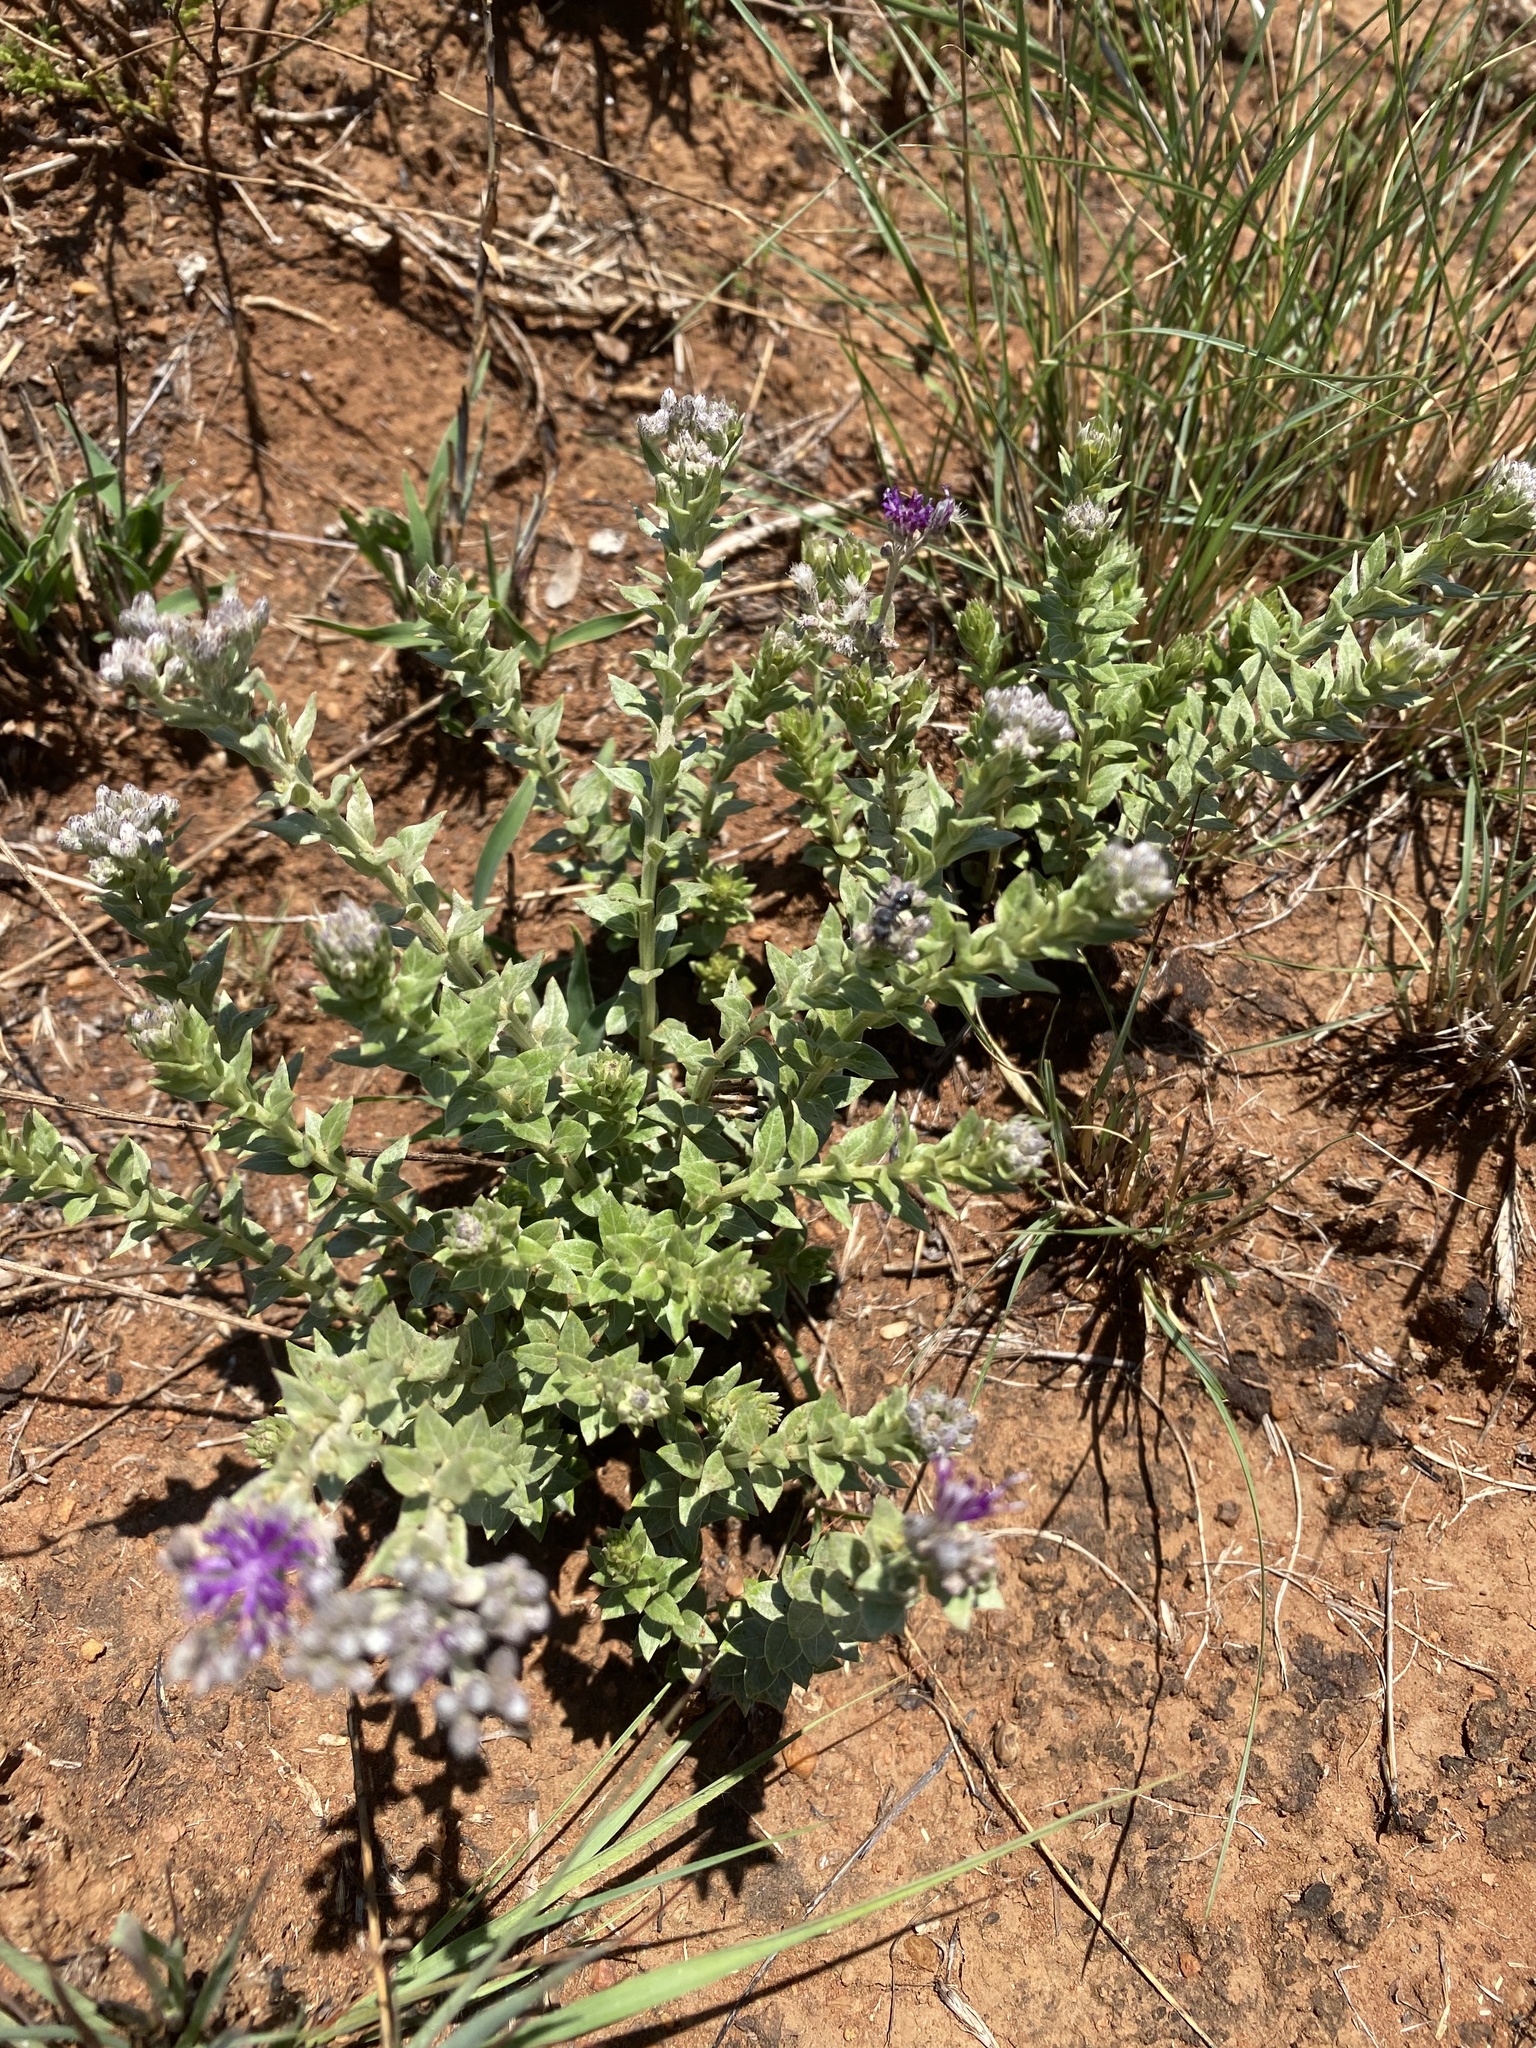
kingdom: Plantae
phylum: Tracheophyta
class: Magnoliopsida
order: Asterales
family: Asteraceae
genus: Hilliardiella
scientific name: Hilliardiella oligocephala
